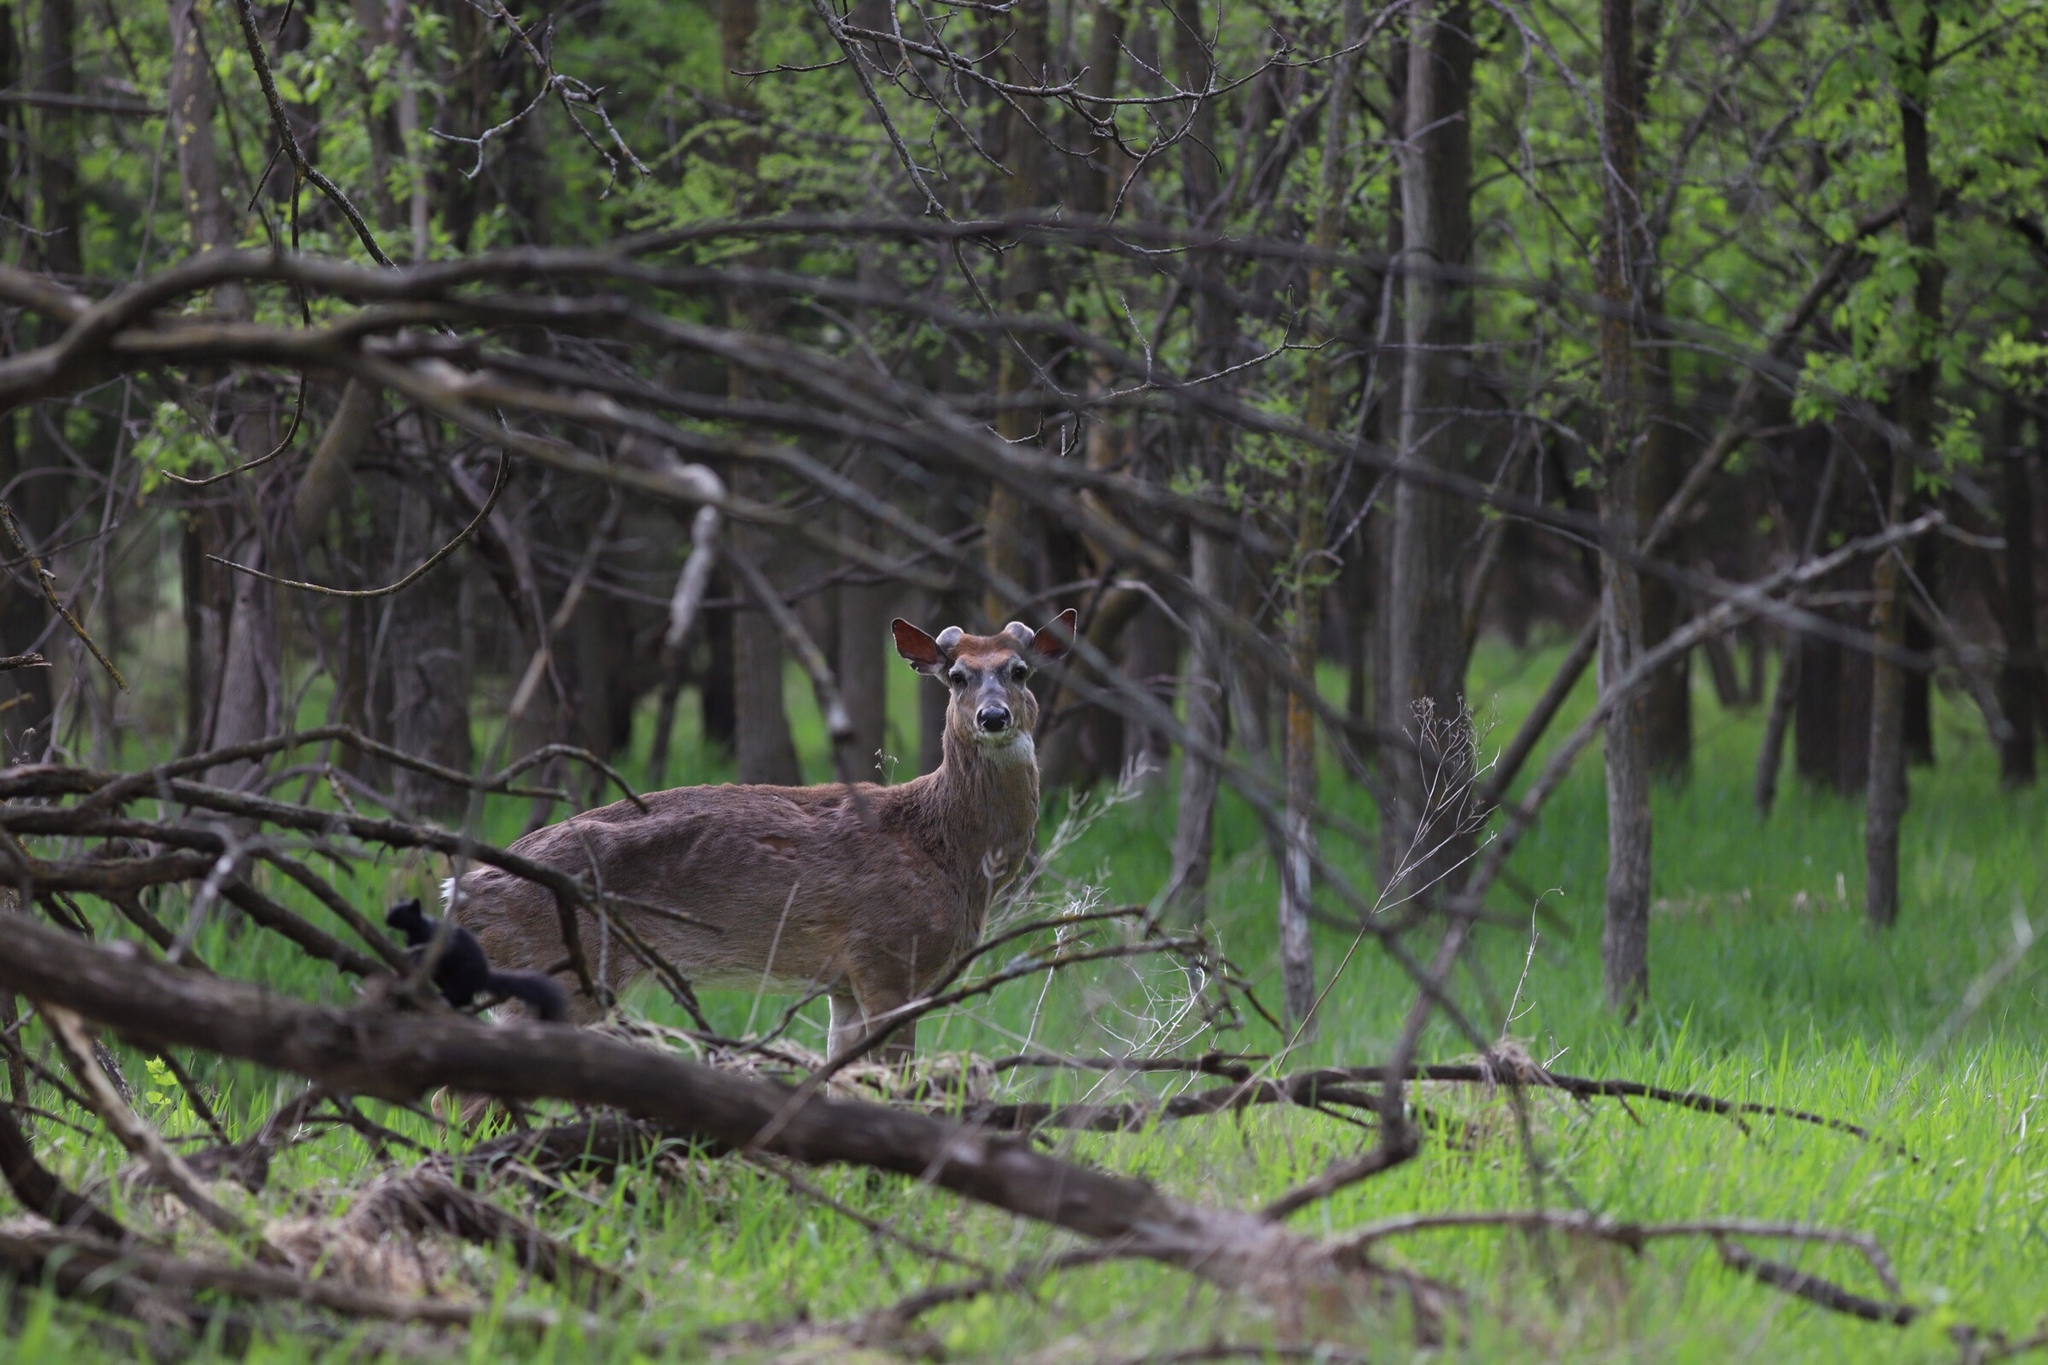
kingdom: Animalia
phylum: Chordata
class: Mammalia
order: Artiodactyla
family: Cervidae
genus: Odocoileus
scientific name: Odocoileus virginianus
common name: White-tailed deer
